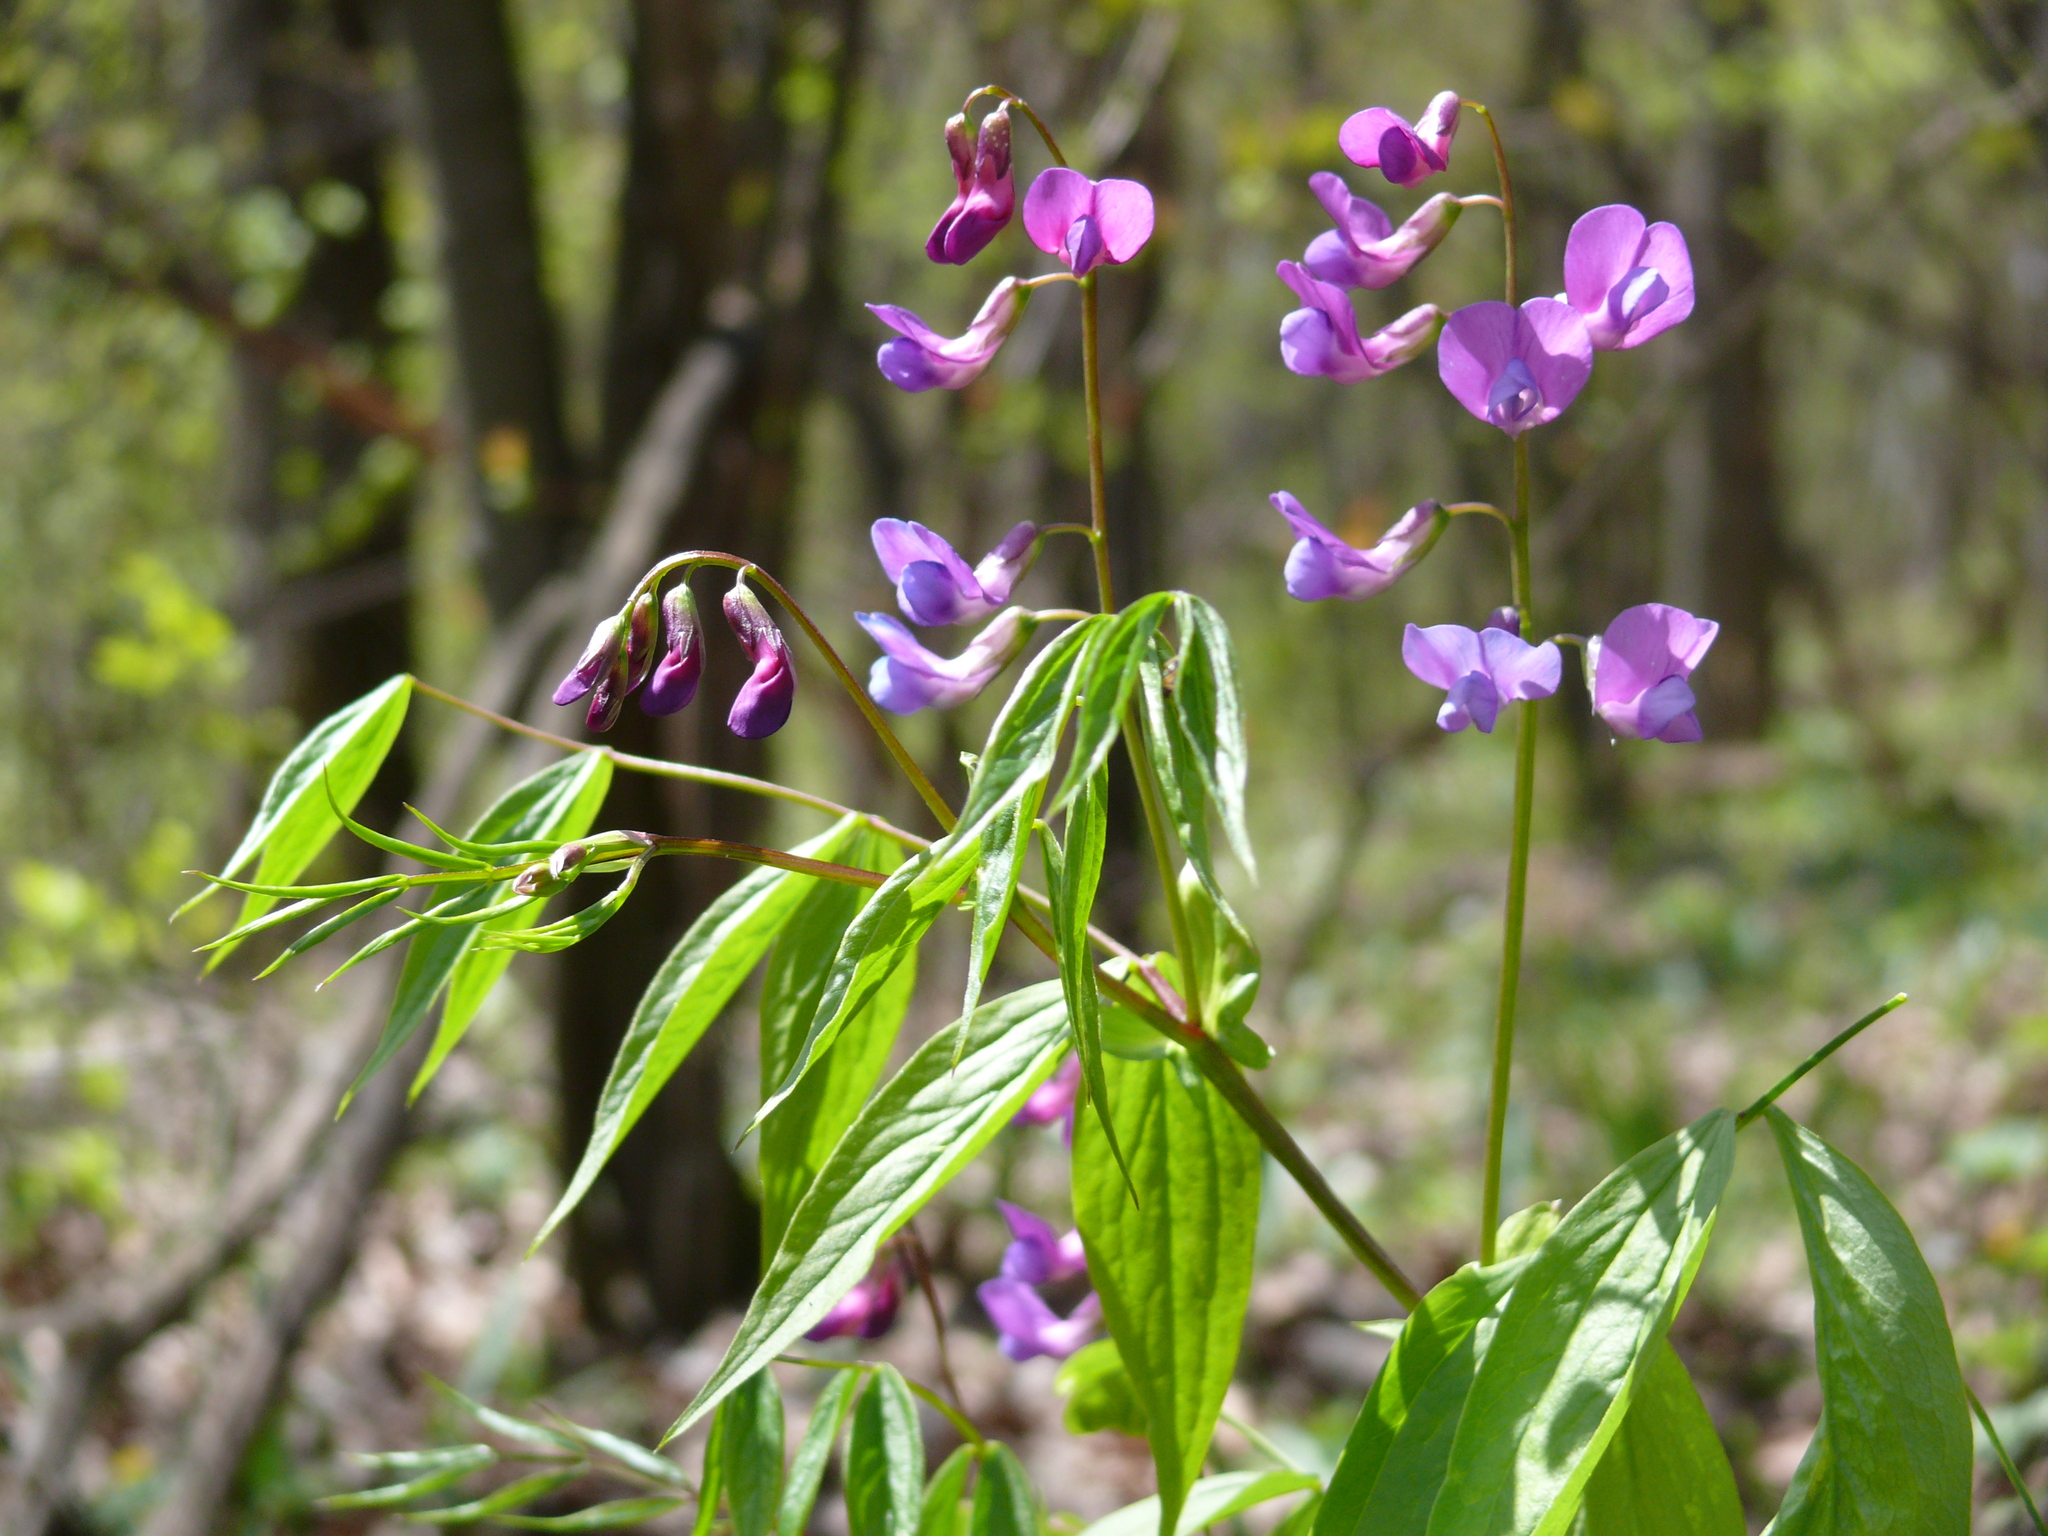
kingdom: Plantae
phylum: Tracheophyta
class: Magnoliopsida
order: Fabales
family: Fabaceae
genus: Lathyrus
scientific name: Lathyrus vernus
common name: Spring pea
